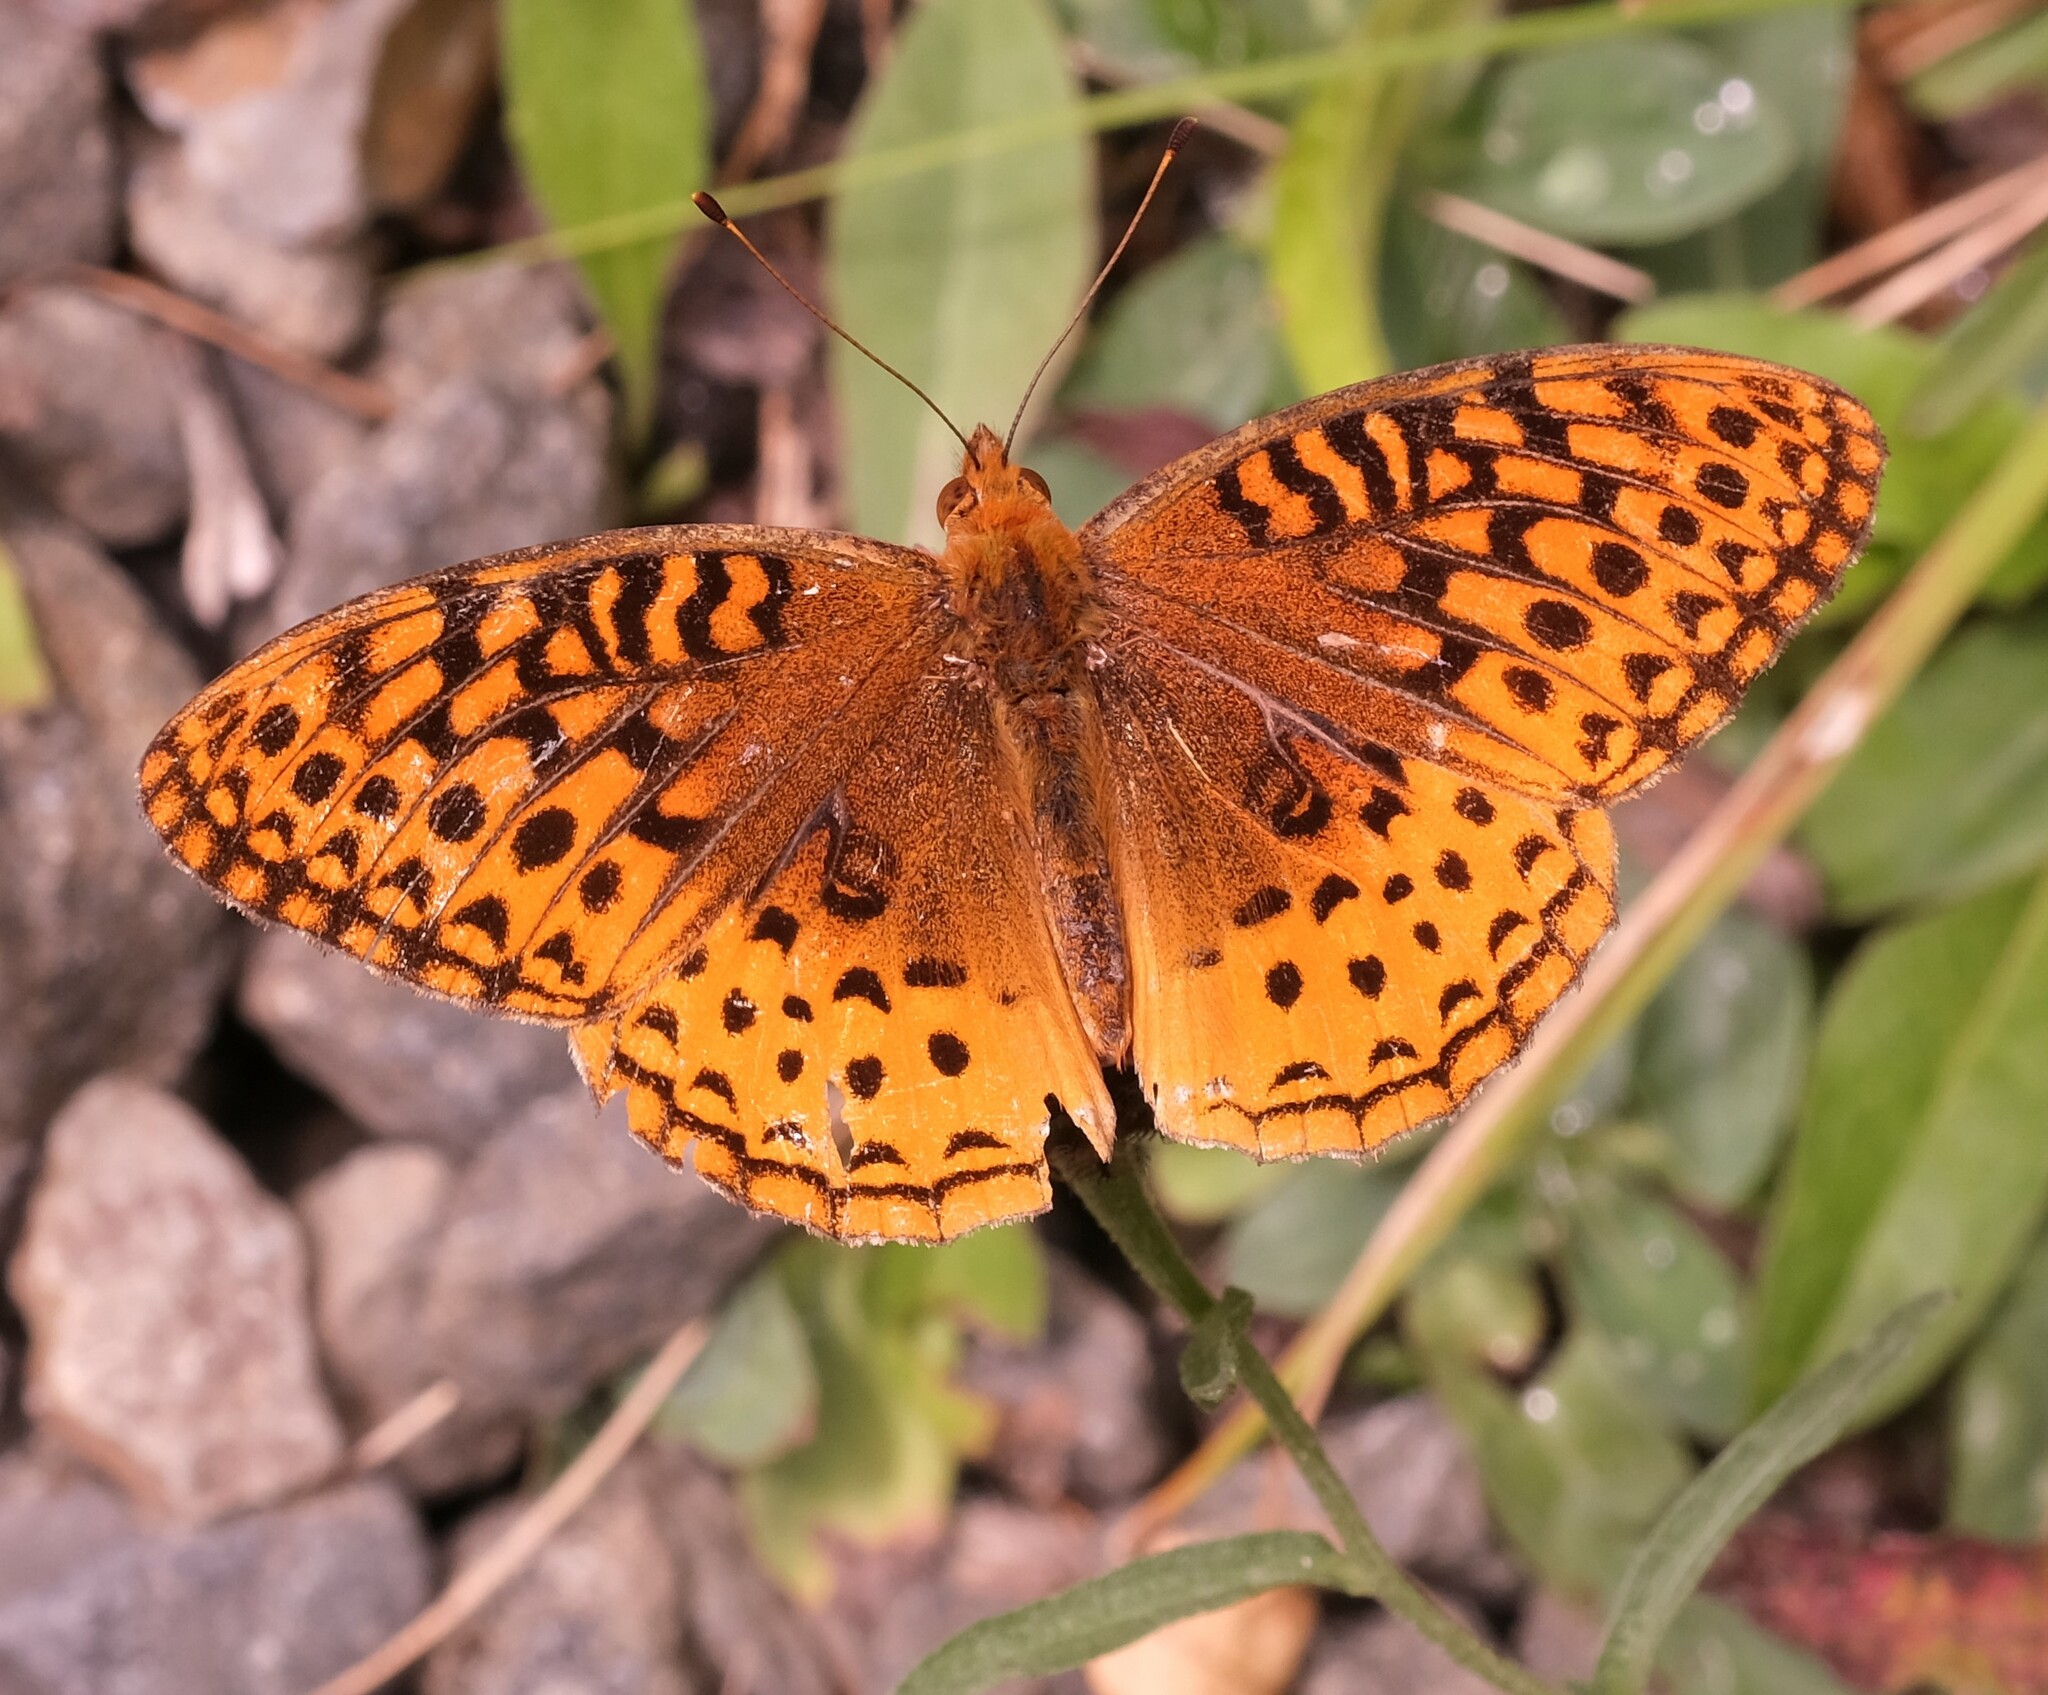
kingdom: Animalia
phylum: Arthropoda
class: Insecta
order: Lepidoptera
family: Nymphalidae
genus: Speyeria
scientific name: Speyeria cybele
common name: Great spangled fritillary
